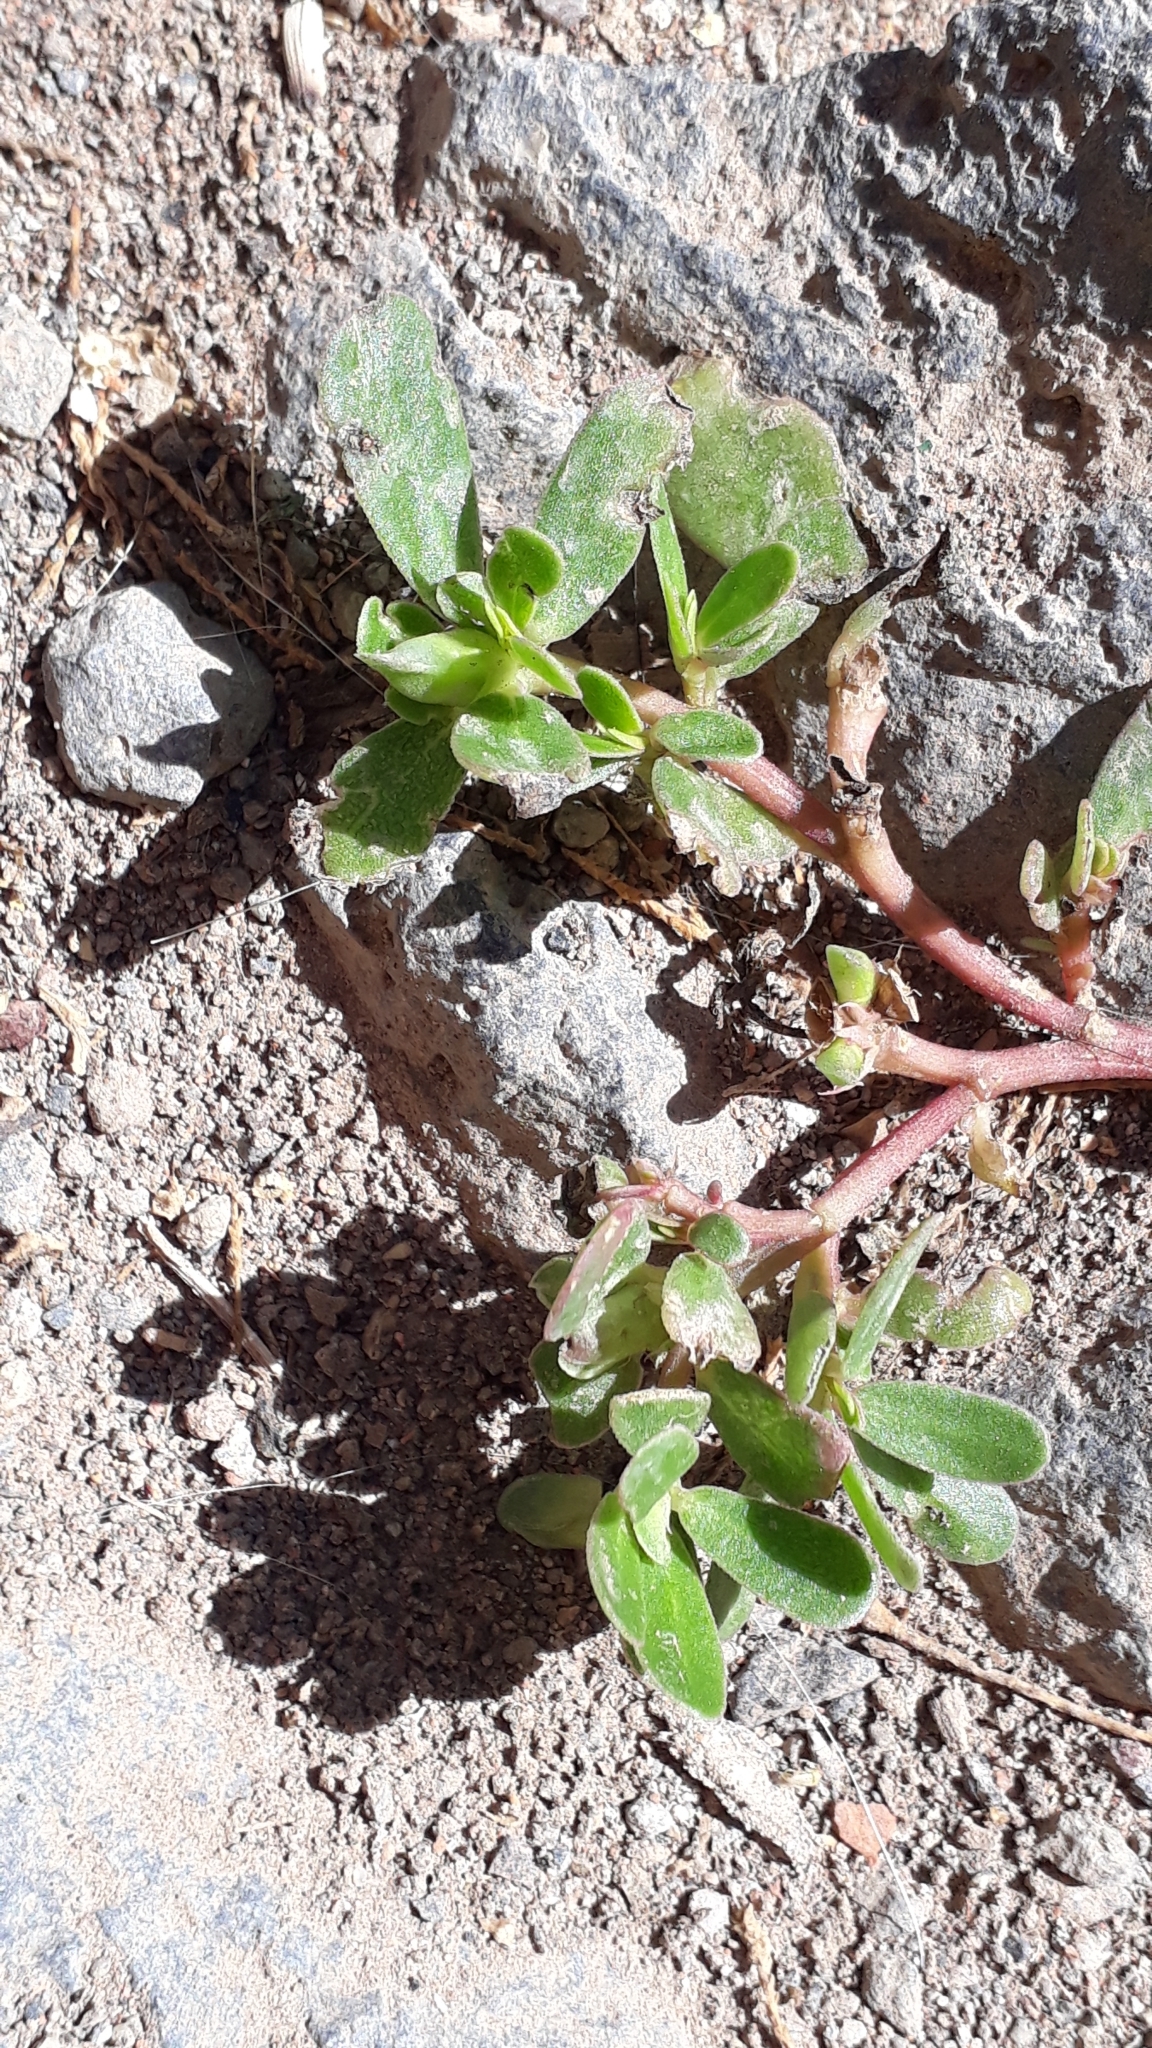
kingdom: Plantae
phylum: Tracheophyta
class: Magnoliopsida
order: Caryophyllales
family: Portulacaceae
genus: Portulaca
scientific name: Portulaca oleracea
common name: Common purslane
